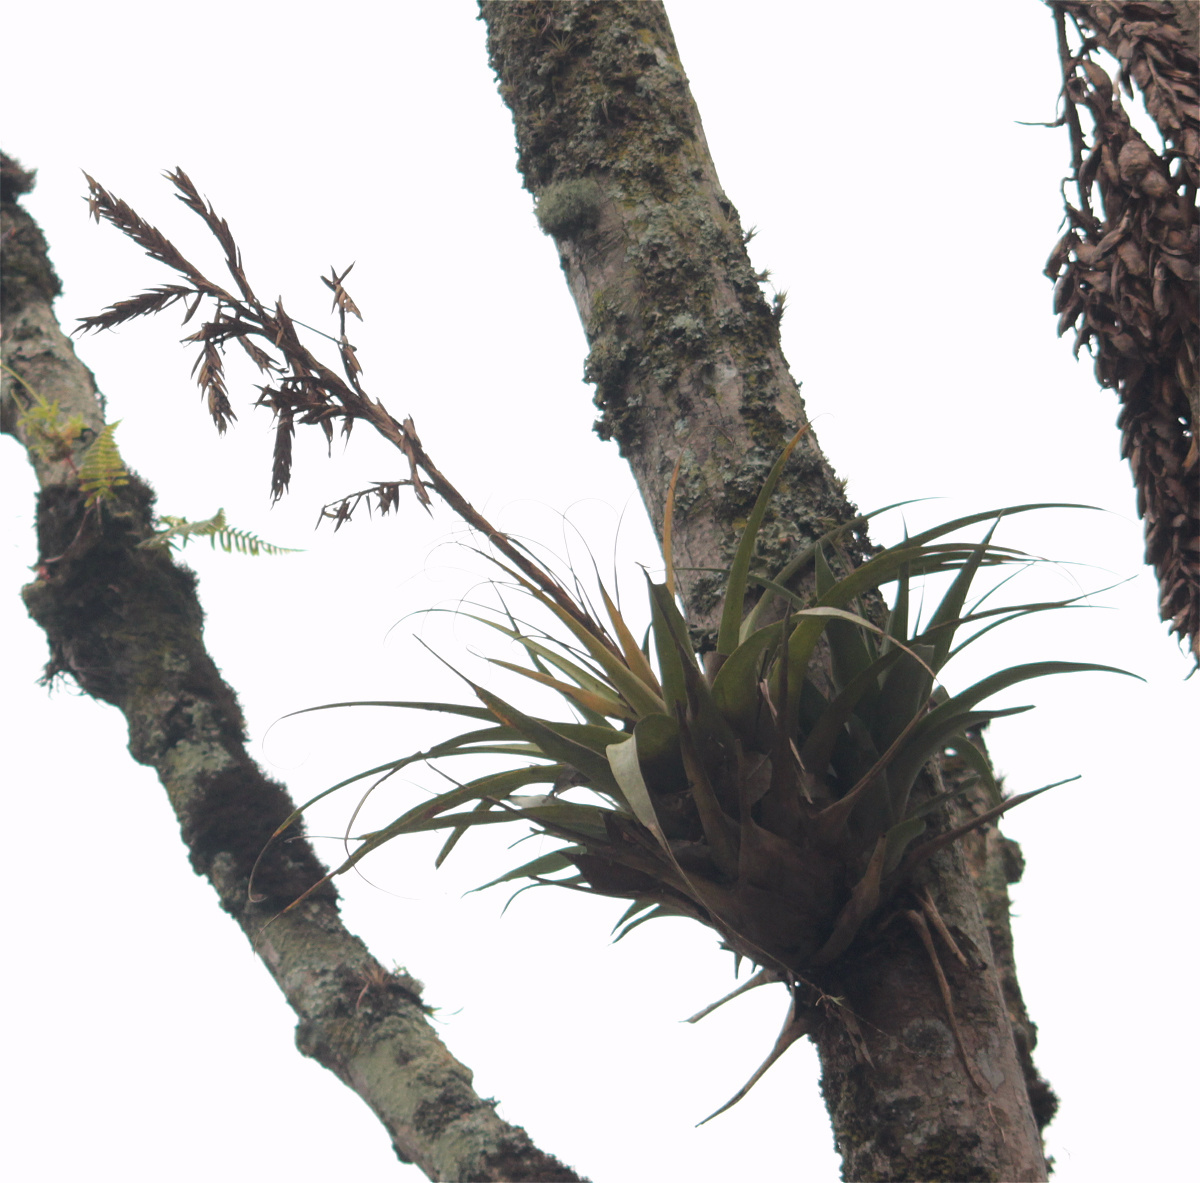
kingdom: Plantae
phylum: Tracheophyta
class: Liliopsida
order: Poales
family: Bromeliaceae
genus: Tillandsia
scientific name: Tillandsia gruberi
